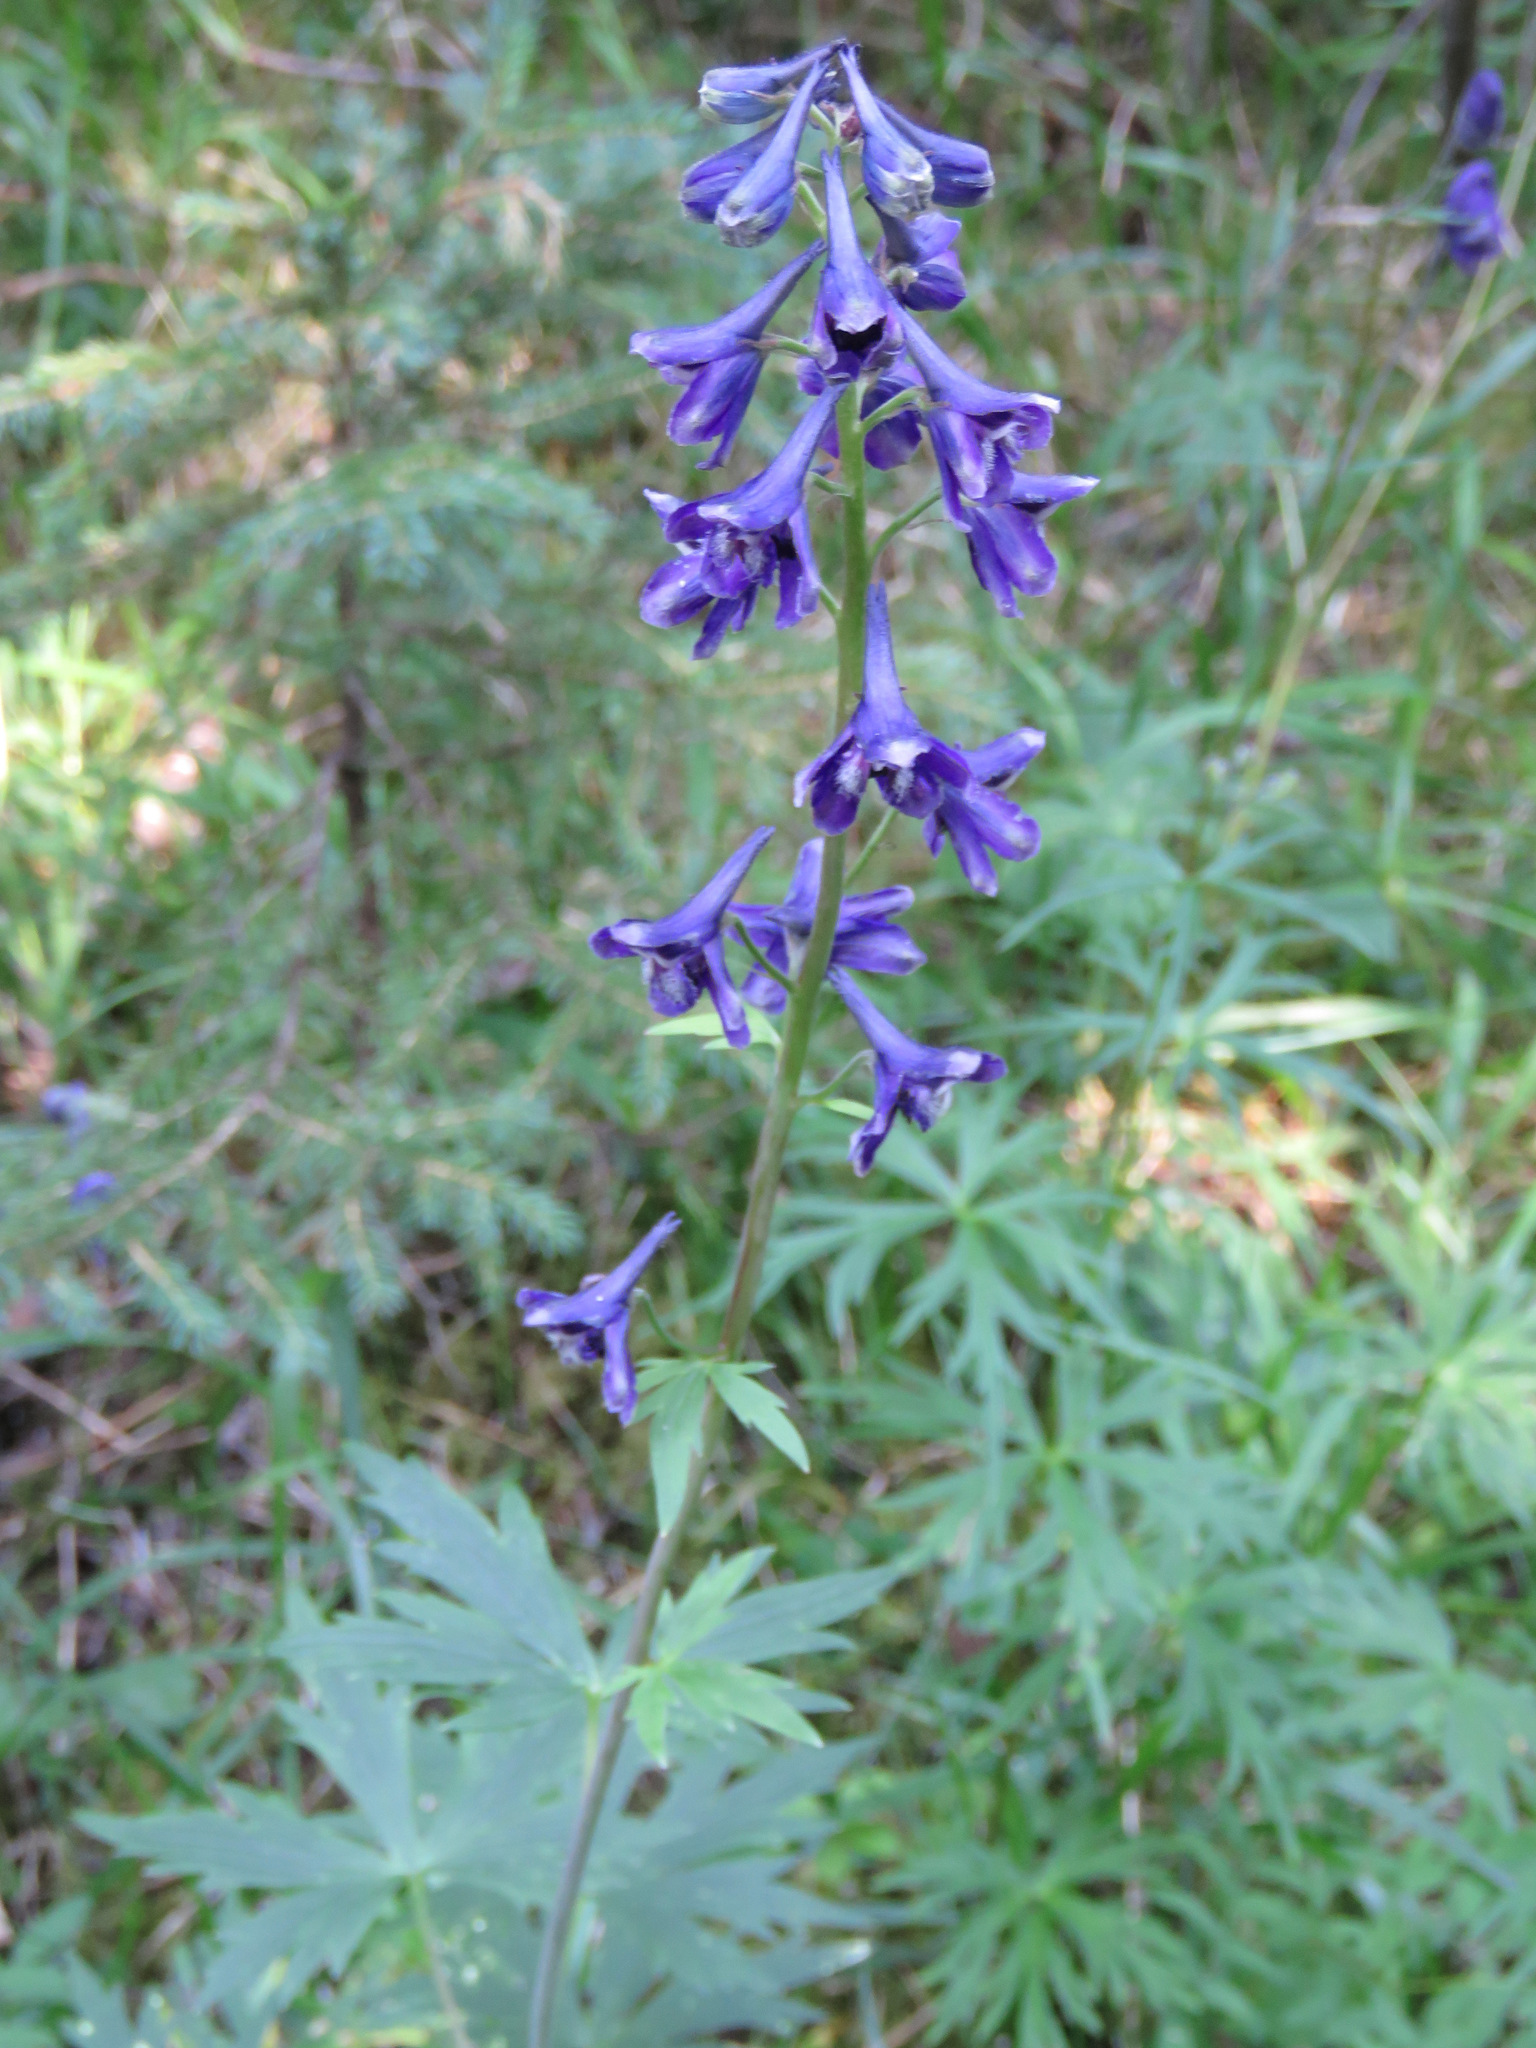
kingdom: Plantae
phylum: Tracheophyta
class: Magnoliopsida
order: Ranunculales
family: Ranunculaceae
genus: Delphinium
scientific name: Delphinium glaucum
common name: Brown's larkspur
